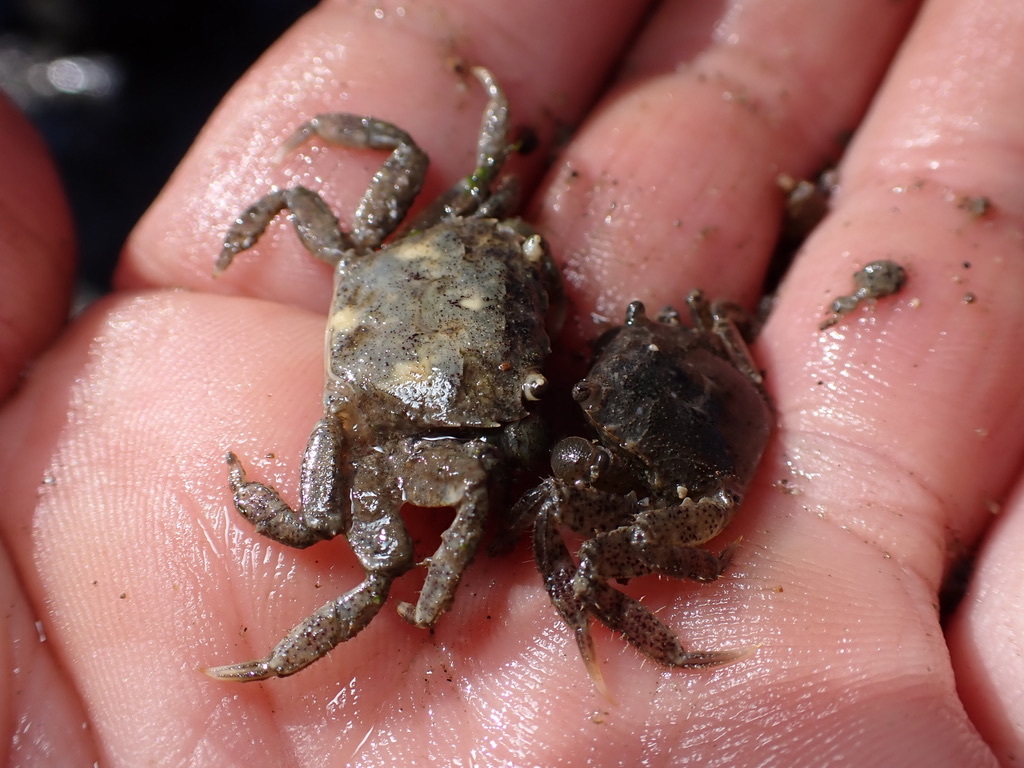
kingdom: Animalia
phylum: Arthropoda
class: Malacostraca
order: Decapoda
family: Varunidae
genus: Hemigrapsus
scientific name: Hemigrapsus oregonensis
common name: Yellow shore crab
